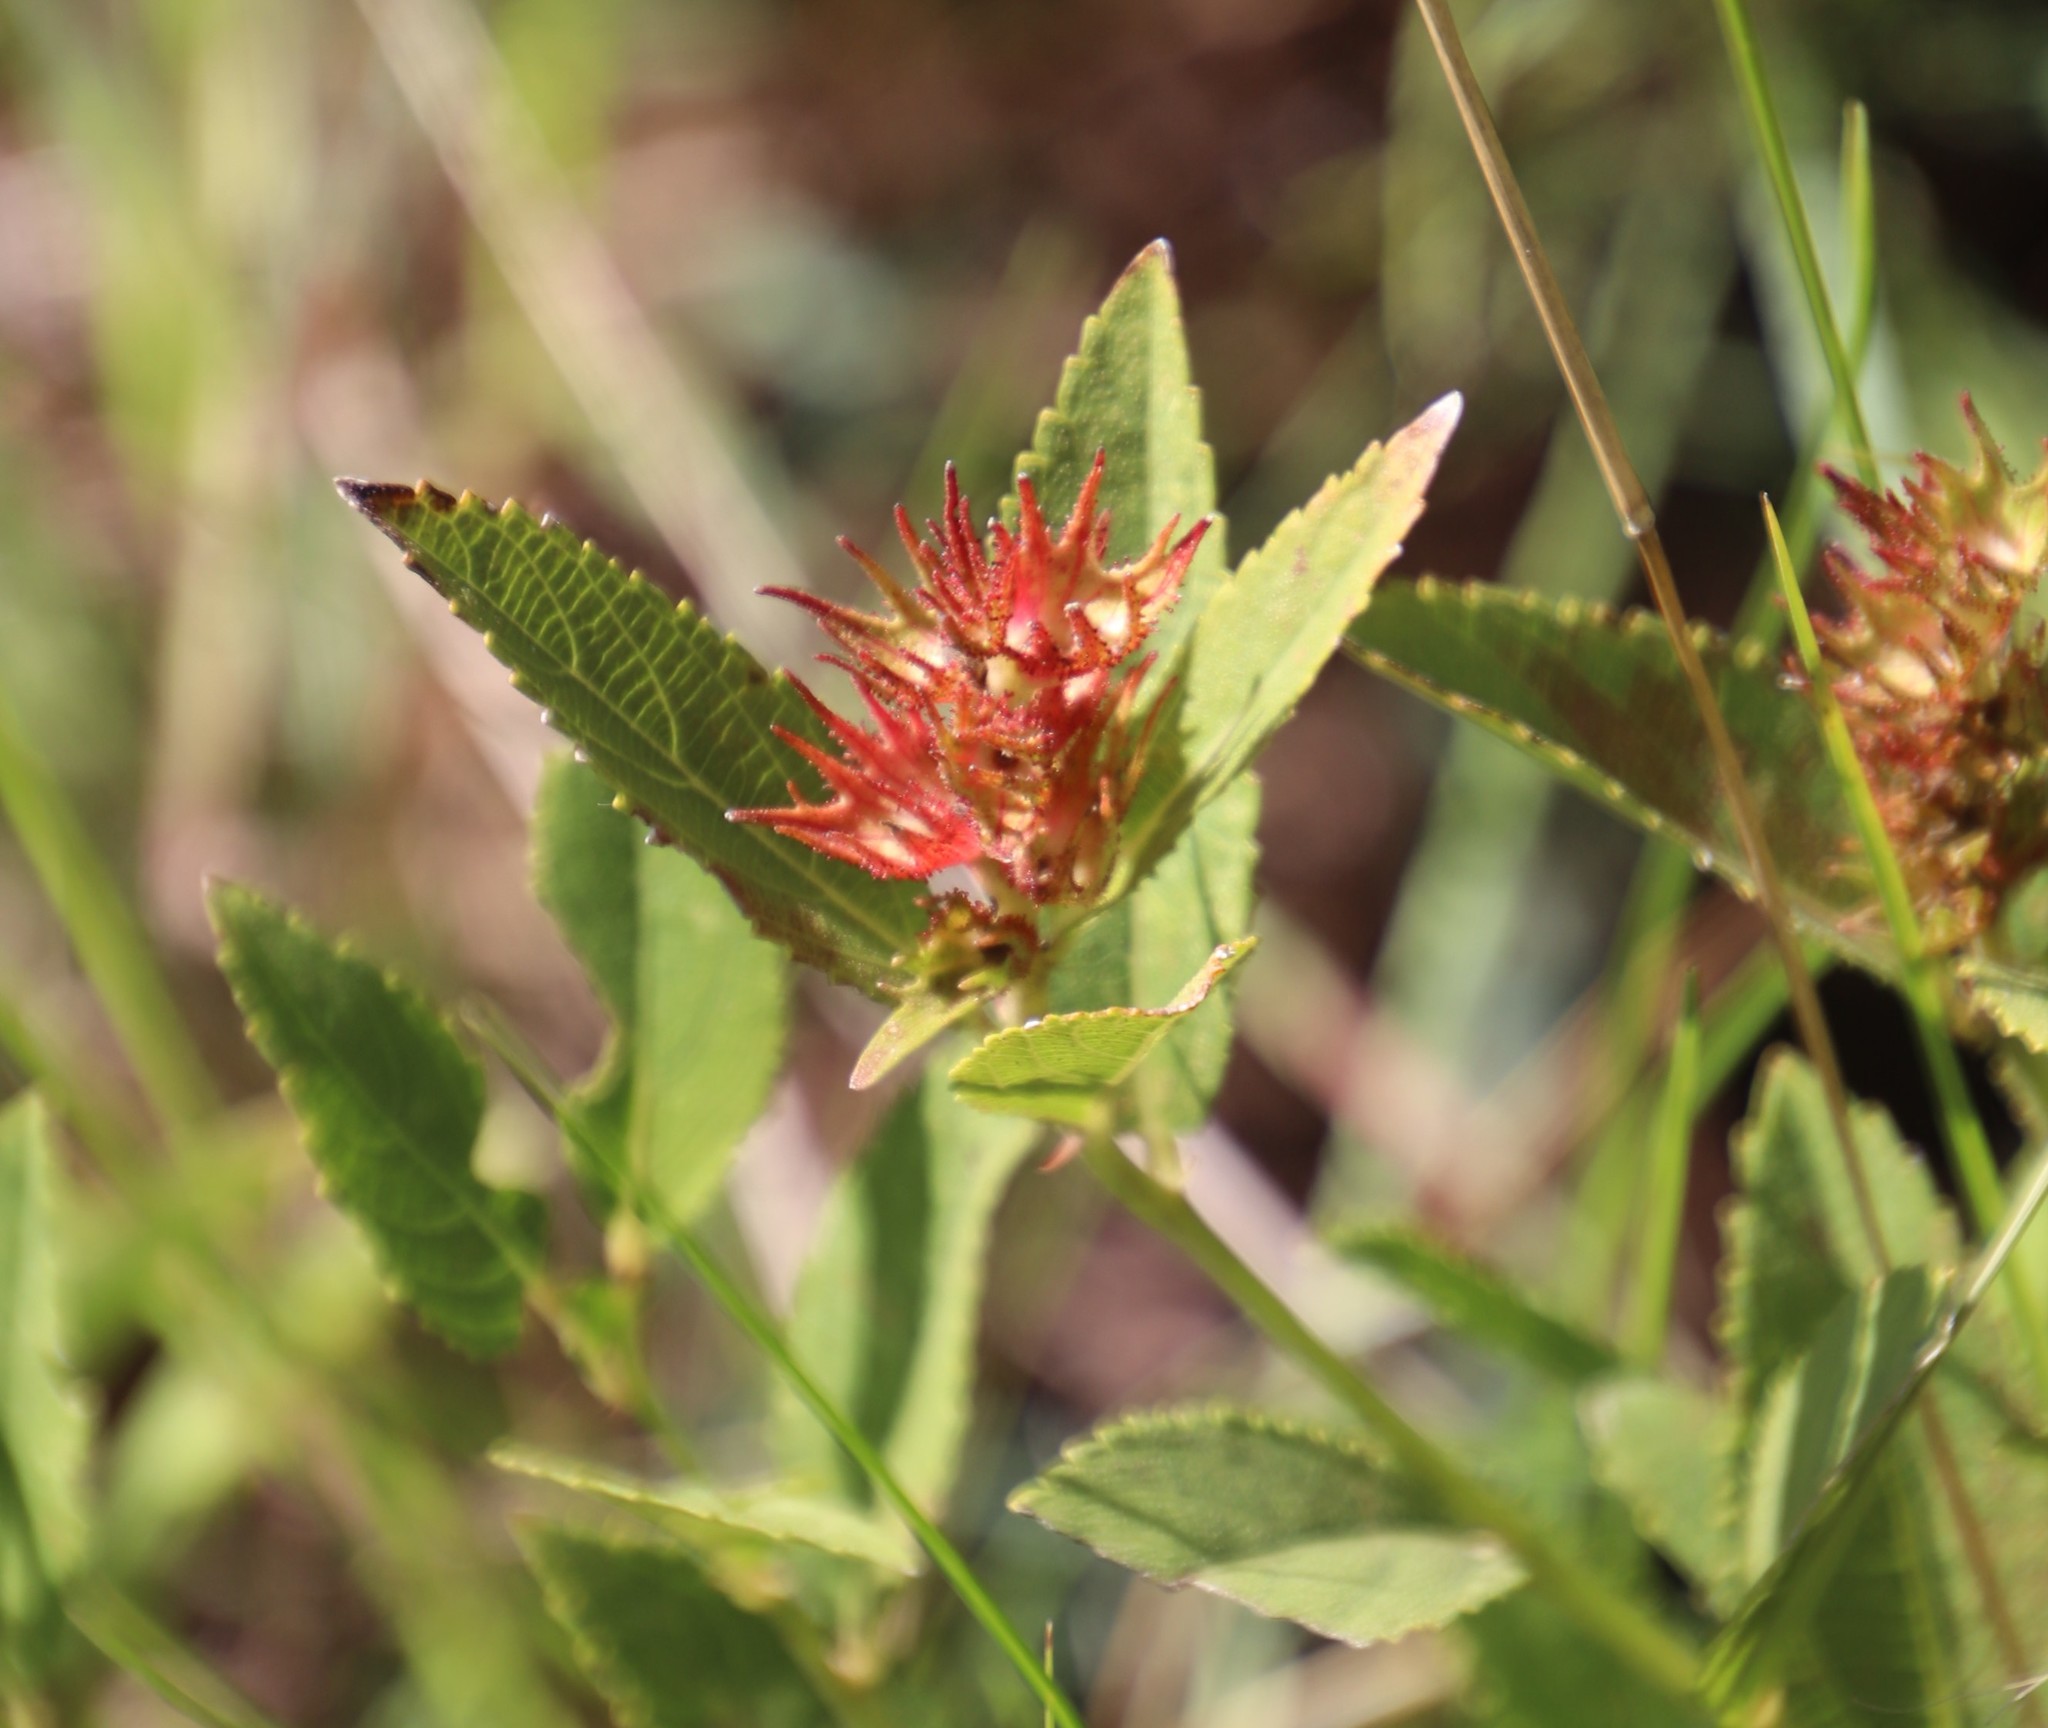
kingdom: Plantae
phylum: Tracheophyta
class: Magnoliopsida
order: Malpighiales
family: Euphorbiaceae
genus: Acalypha
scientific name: Acalypha punctata
